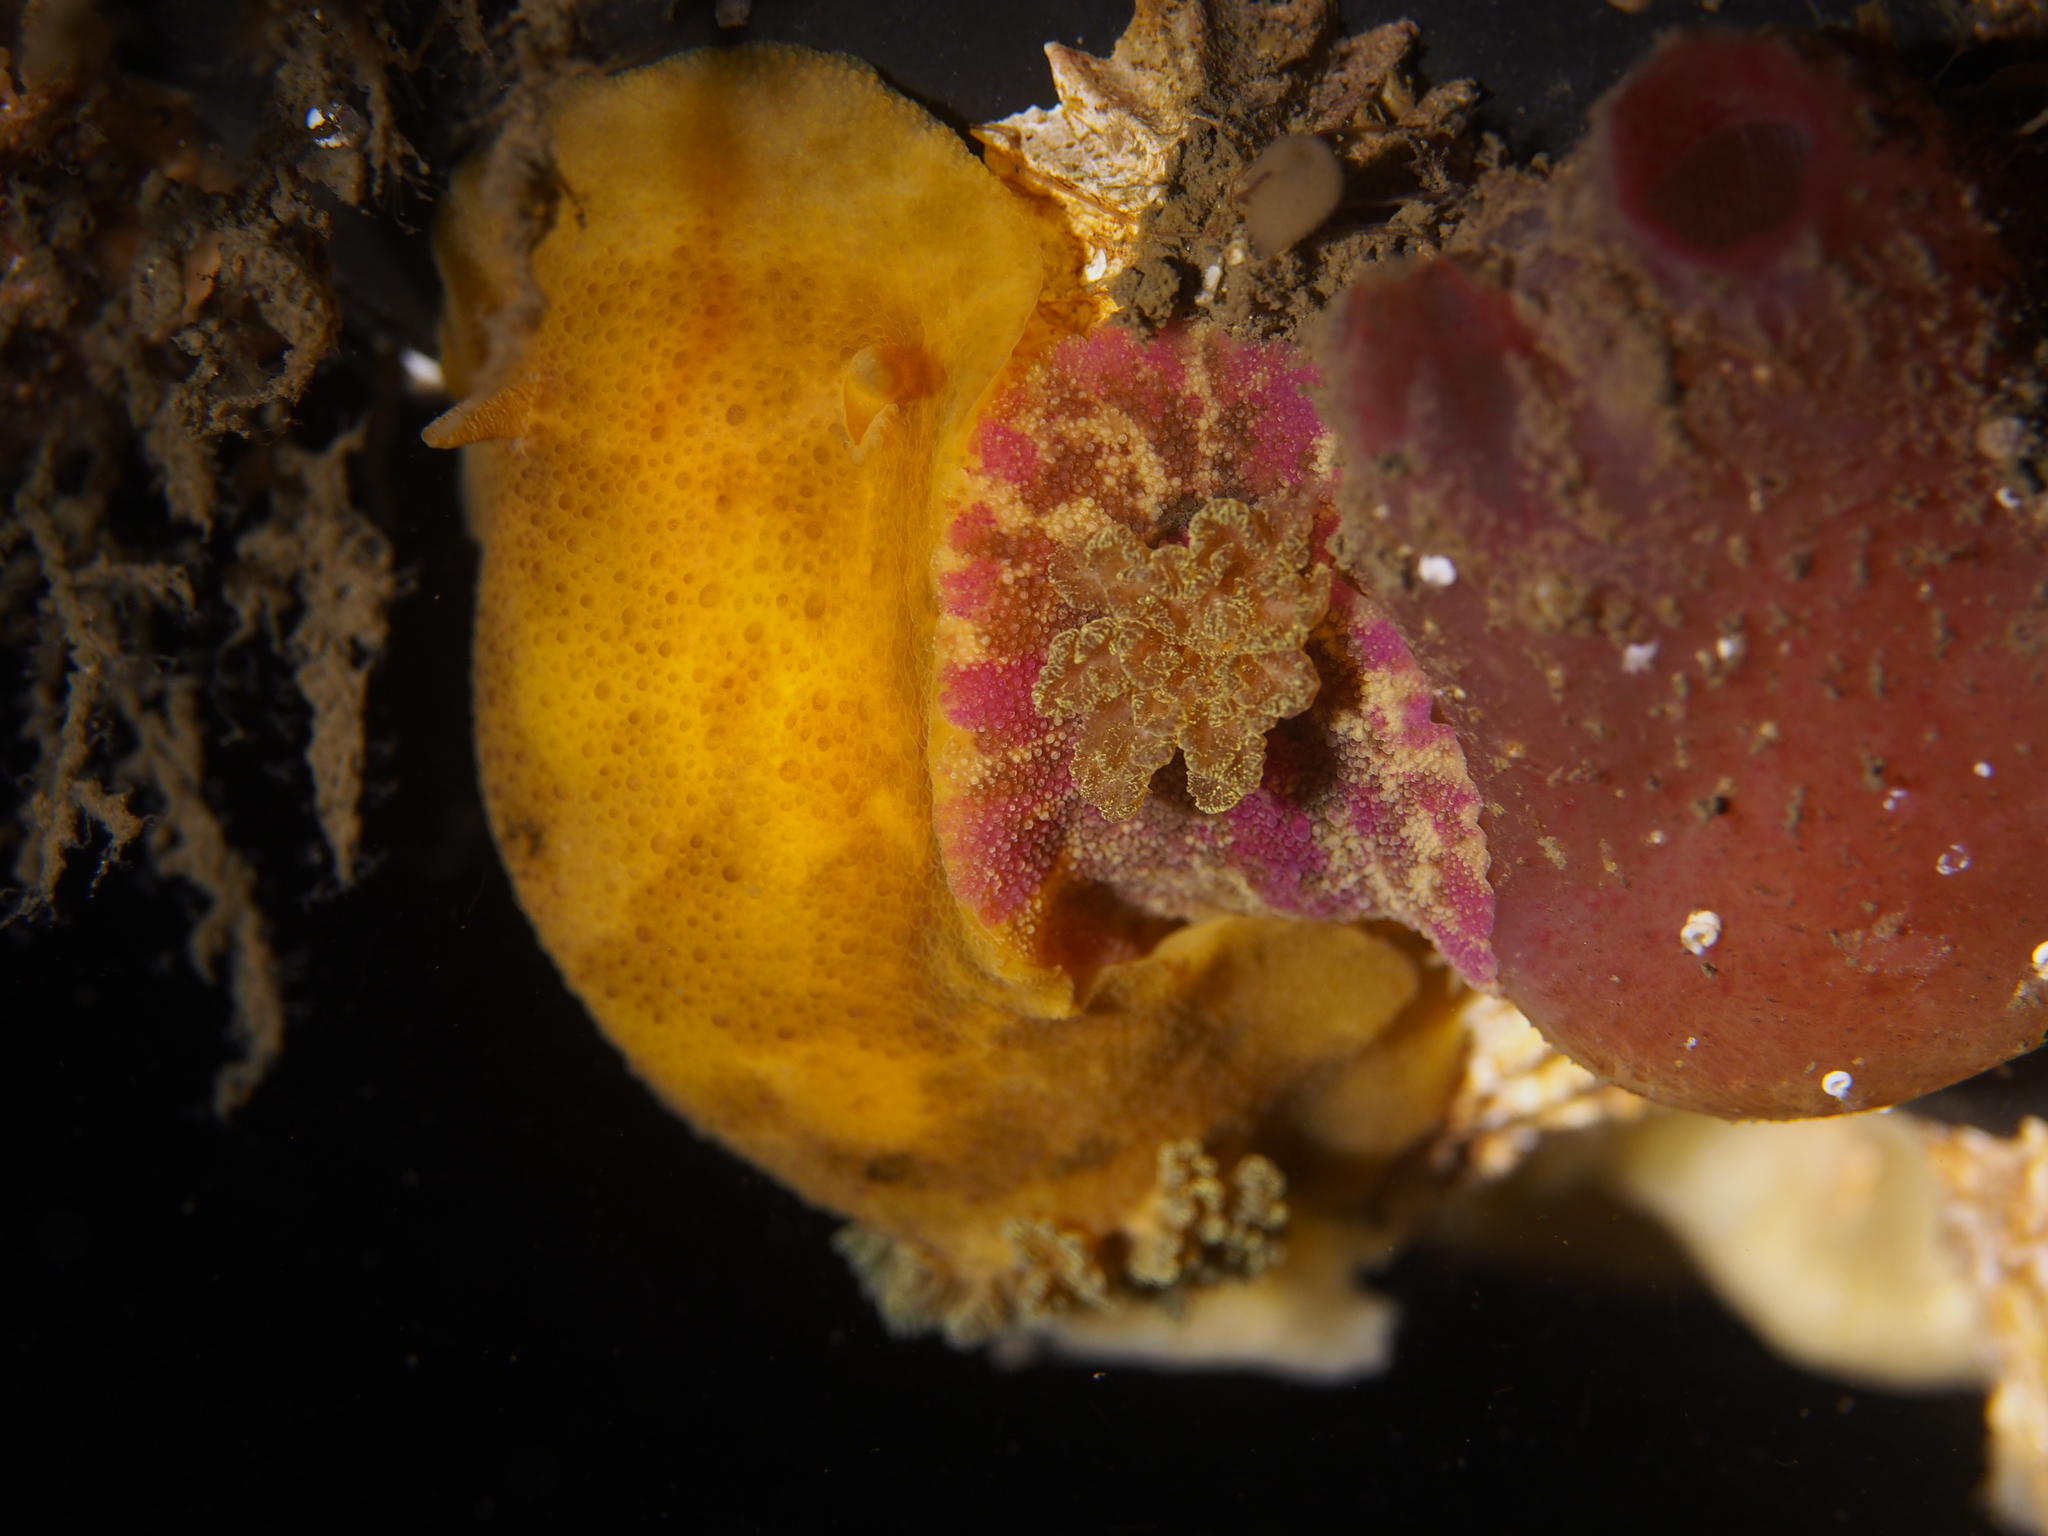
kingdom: Animalia
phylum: Mollusca
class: Gastropoda
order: Nudibranchia
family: Dorididae
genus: Doris
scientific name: Doris pseudoargus
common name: Sea lemon
